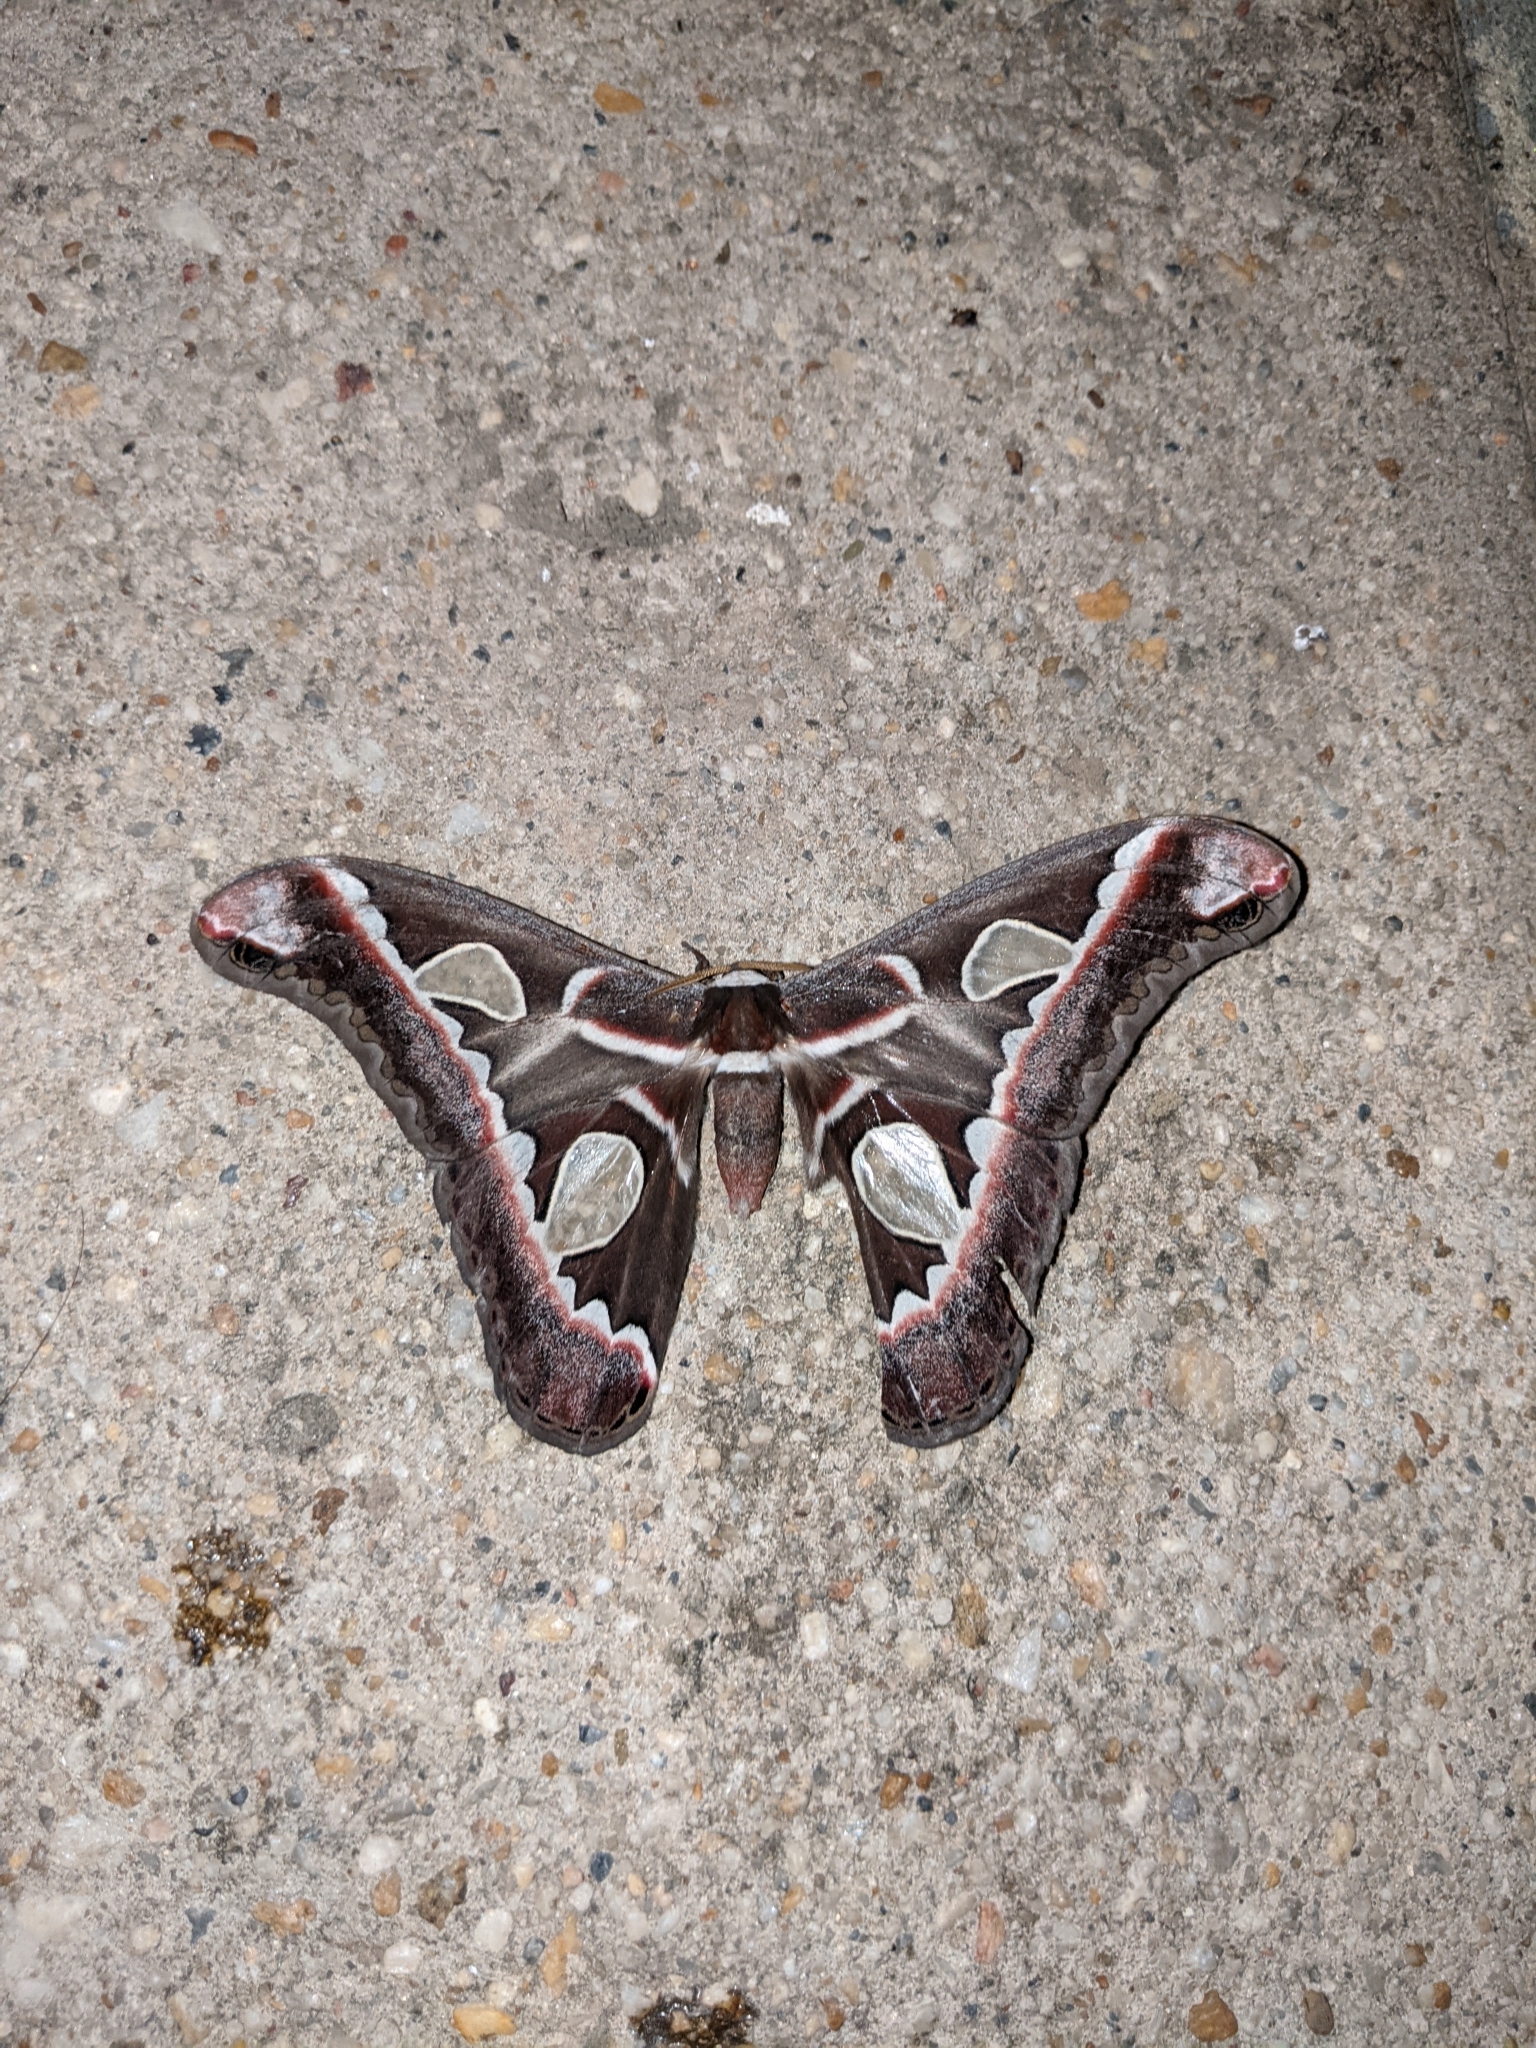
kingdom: Animalia
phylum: Arthropoda
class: Insecta
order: Lepidoptera
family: Saturniidae
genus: Rothschildia
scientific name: Rothschildia
